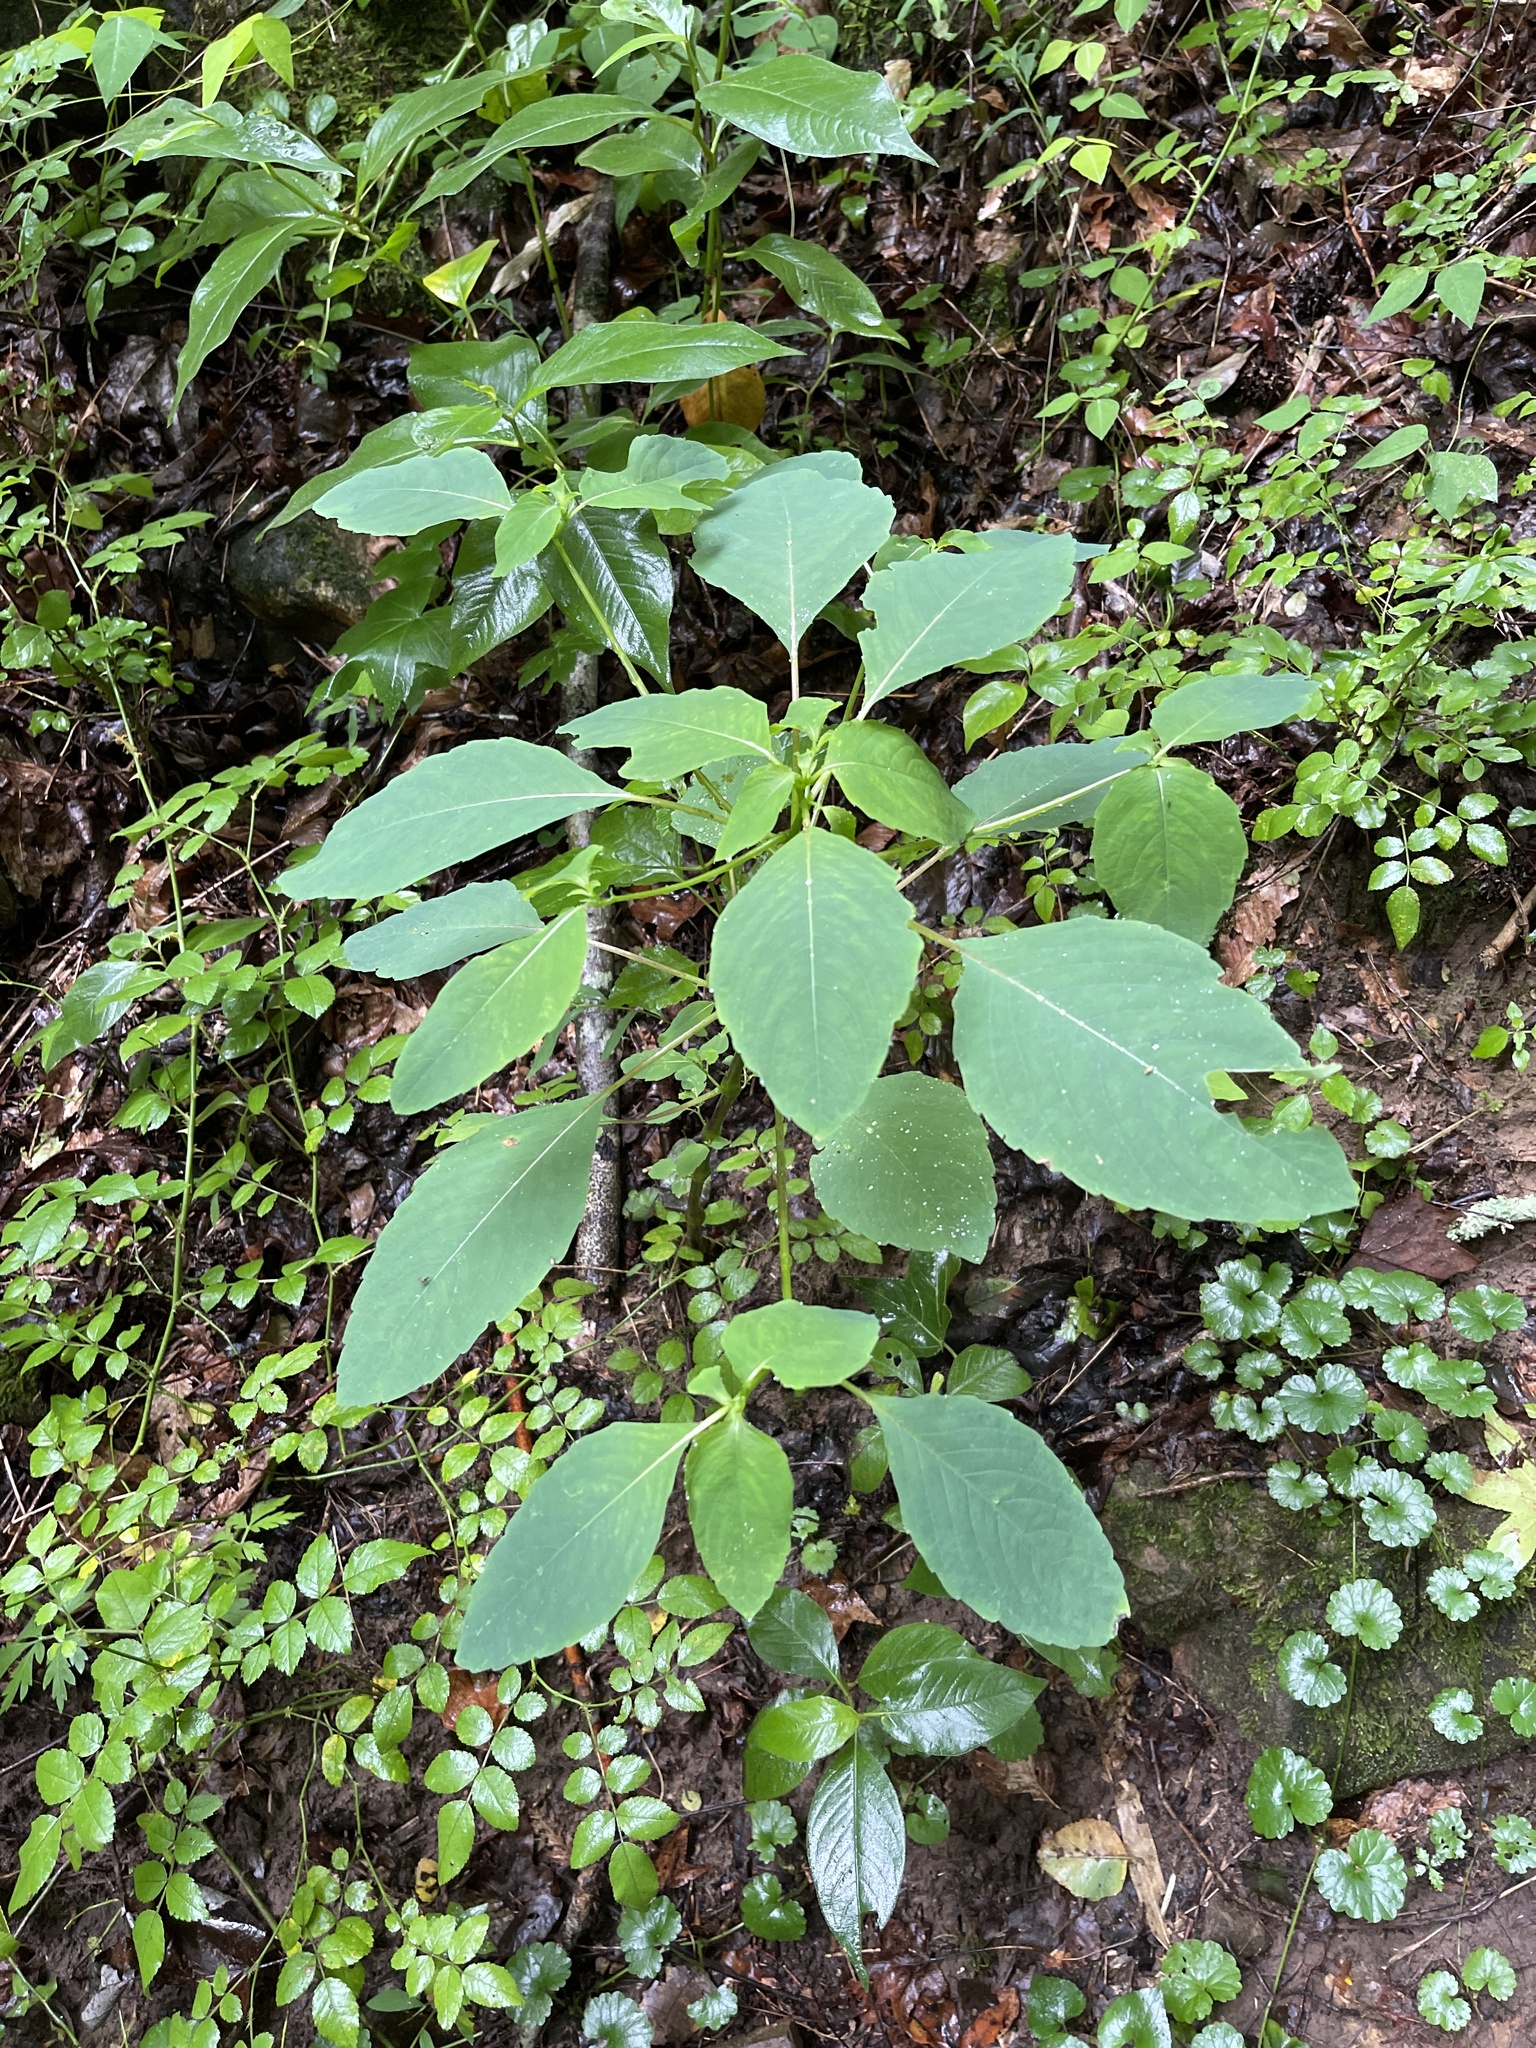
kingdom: Plantae
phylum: Tracheophyta
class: Magnoliopsida
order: Ericales
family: Balsaminaceae
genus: Impatiens
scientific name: Impatiens capensis
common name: Orange balsam
